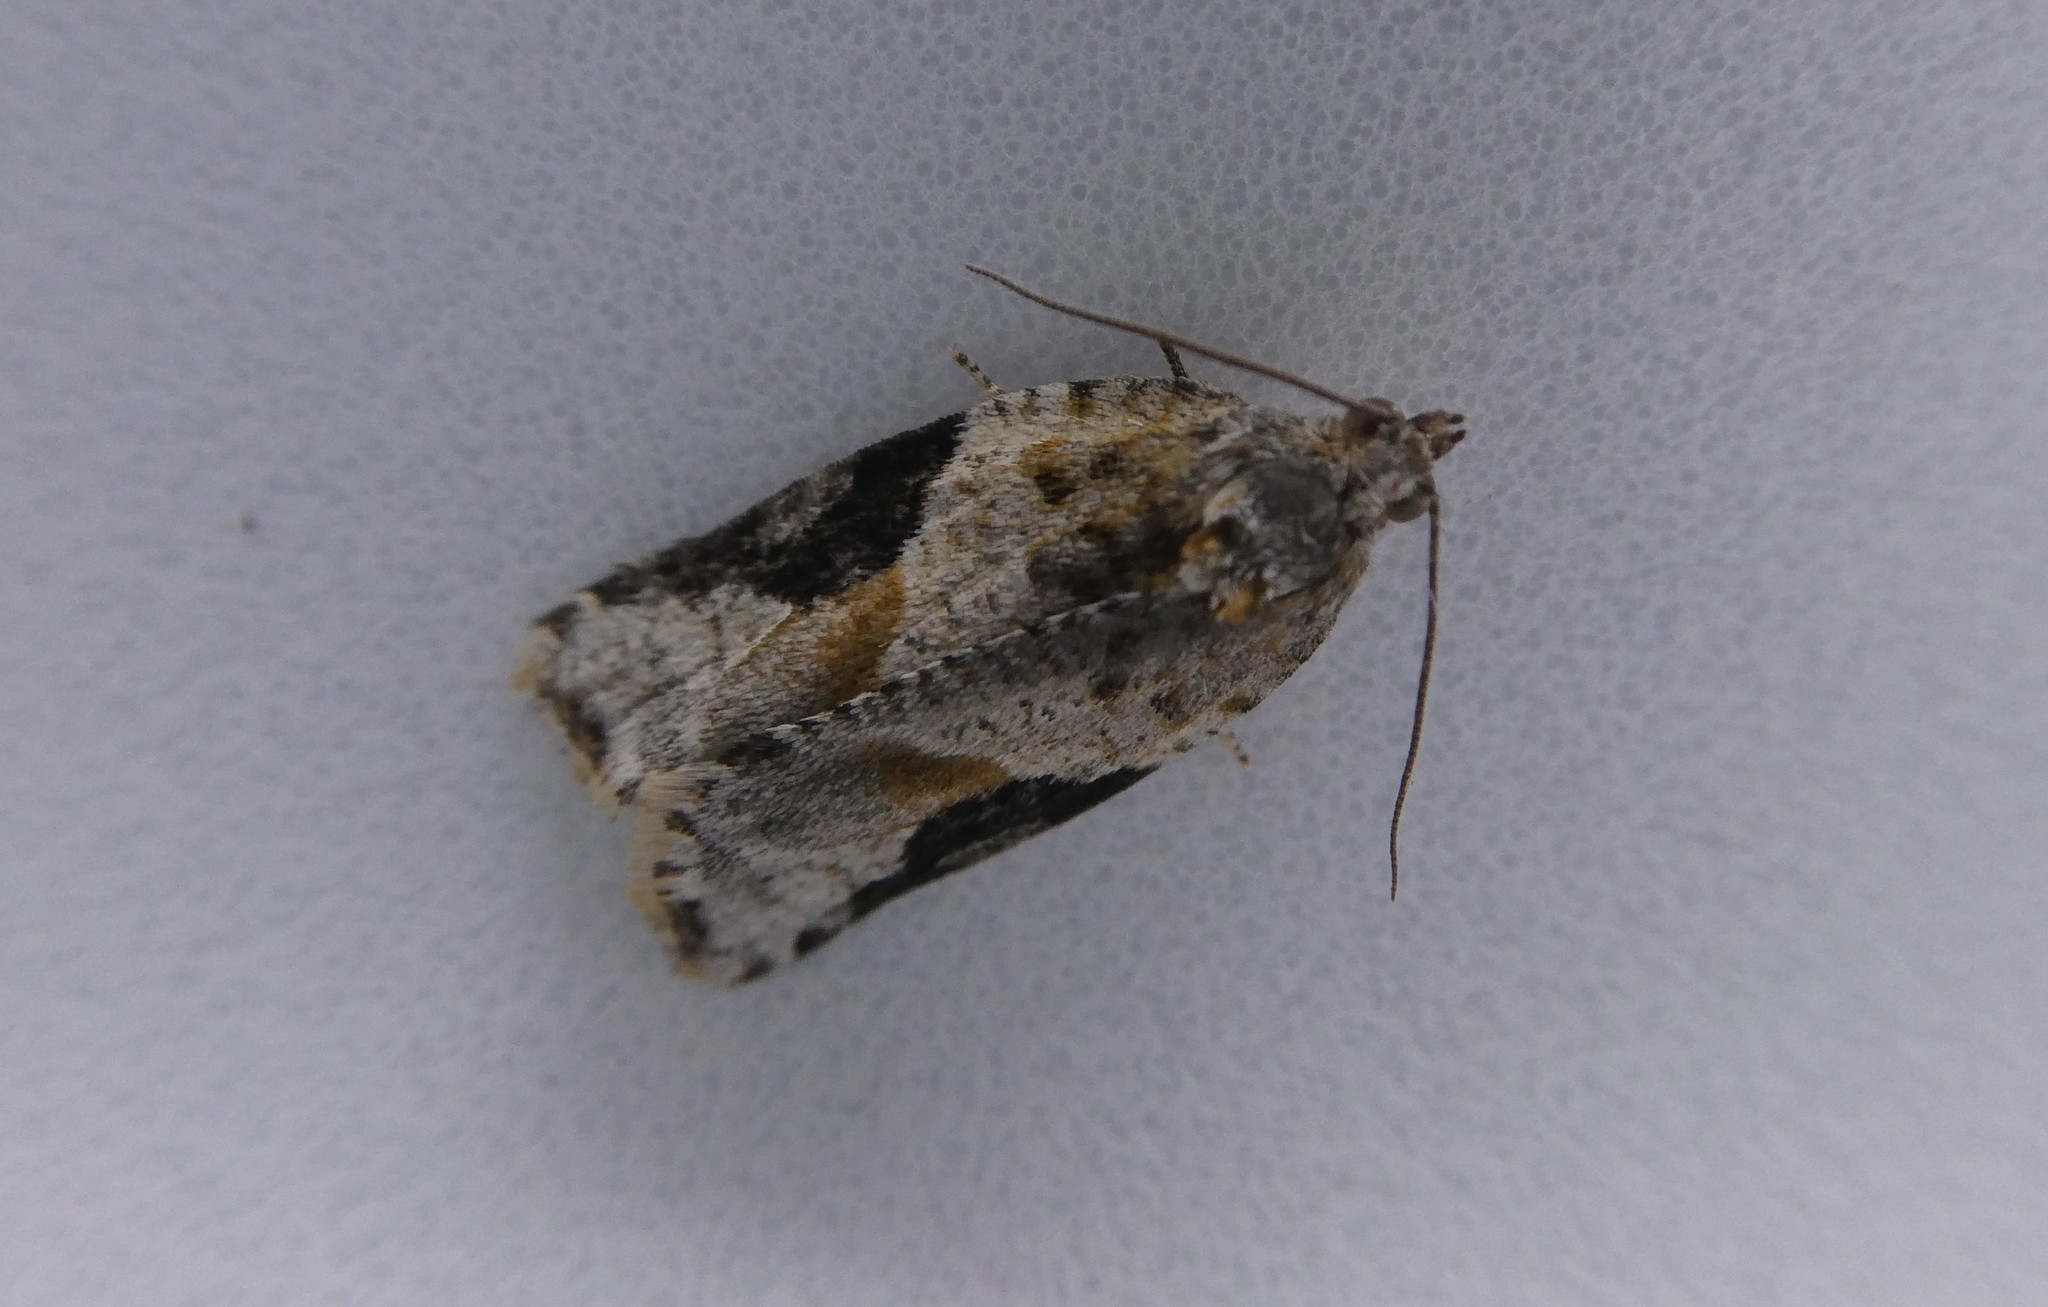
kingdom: Animalia
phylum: Arthropoda
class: Insecta
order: Lepidoptera
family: Tortricidae
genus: Argyrotaenia
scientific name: Argyrotaenia mariana
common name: Gray-banded leafroller moth
